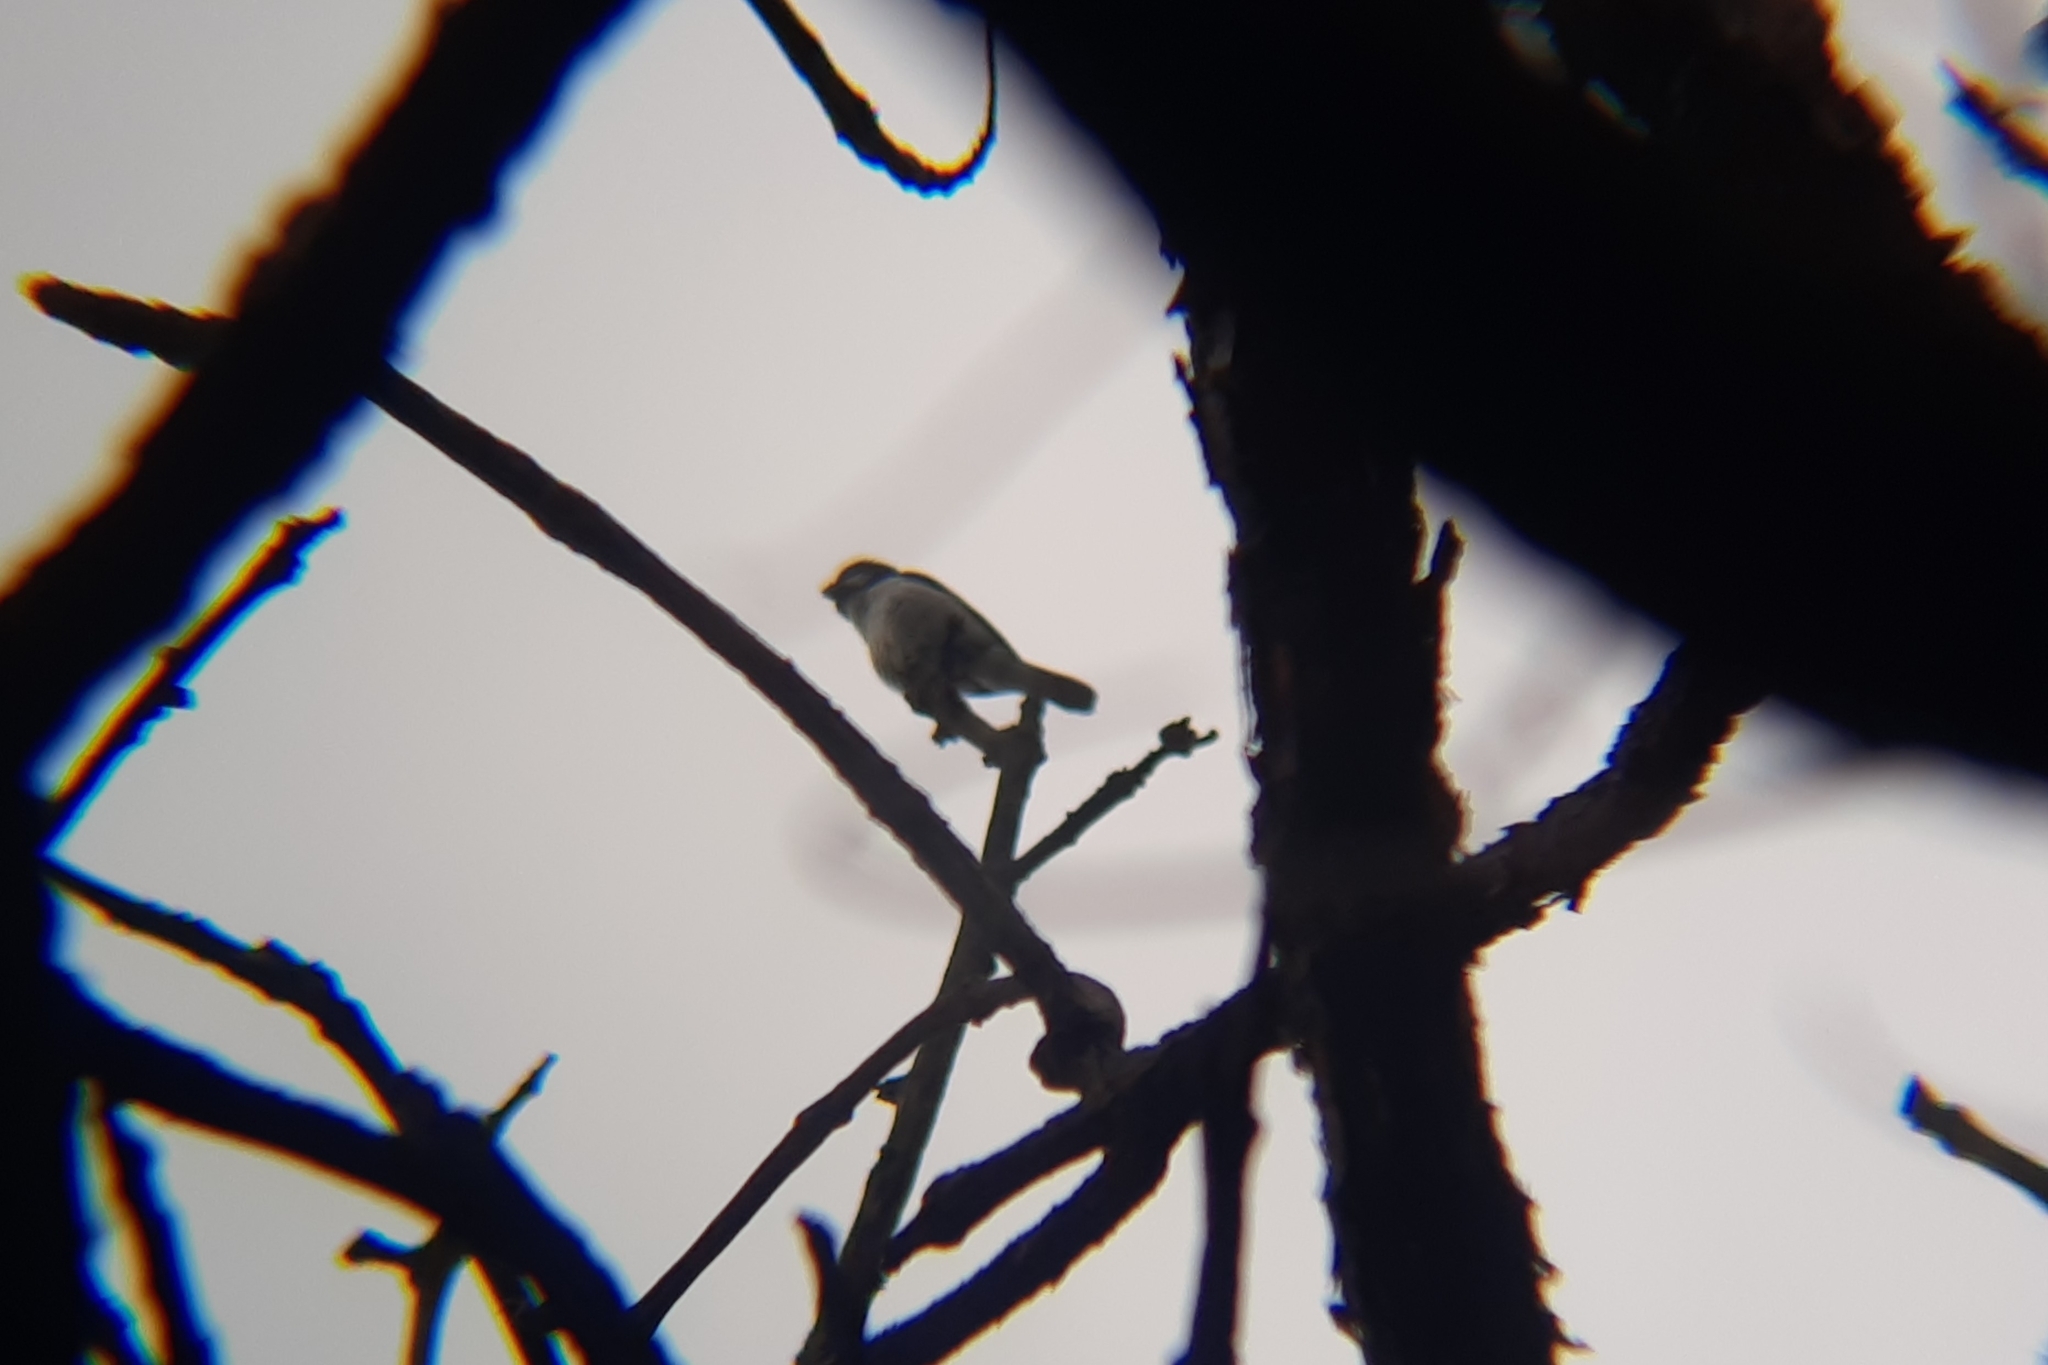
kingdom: Animalia
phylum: Chordata
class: Aves
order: Passeriformes
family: Thraupidae
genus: Sporophila
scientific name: Sporophila lineola
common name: Lined seedeater
